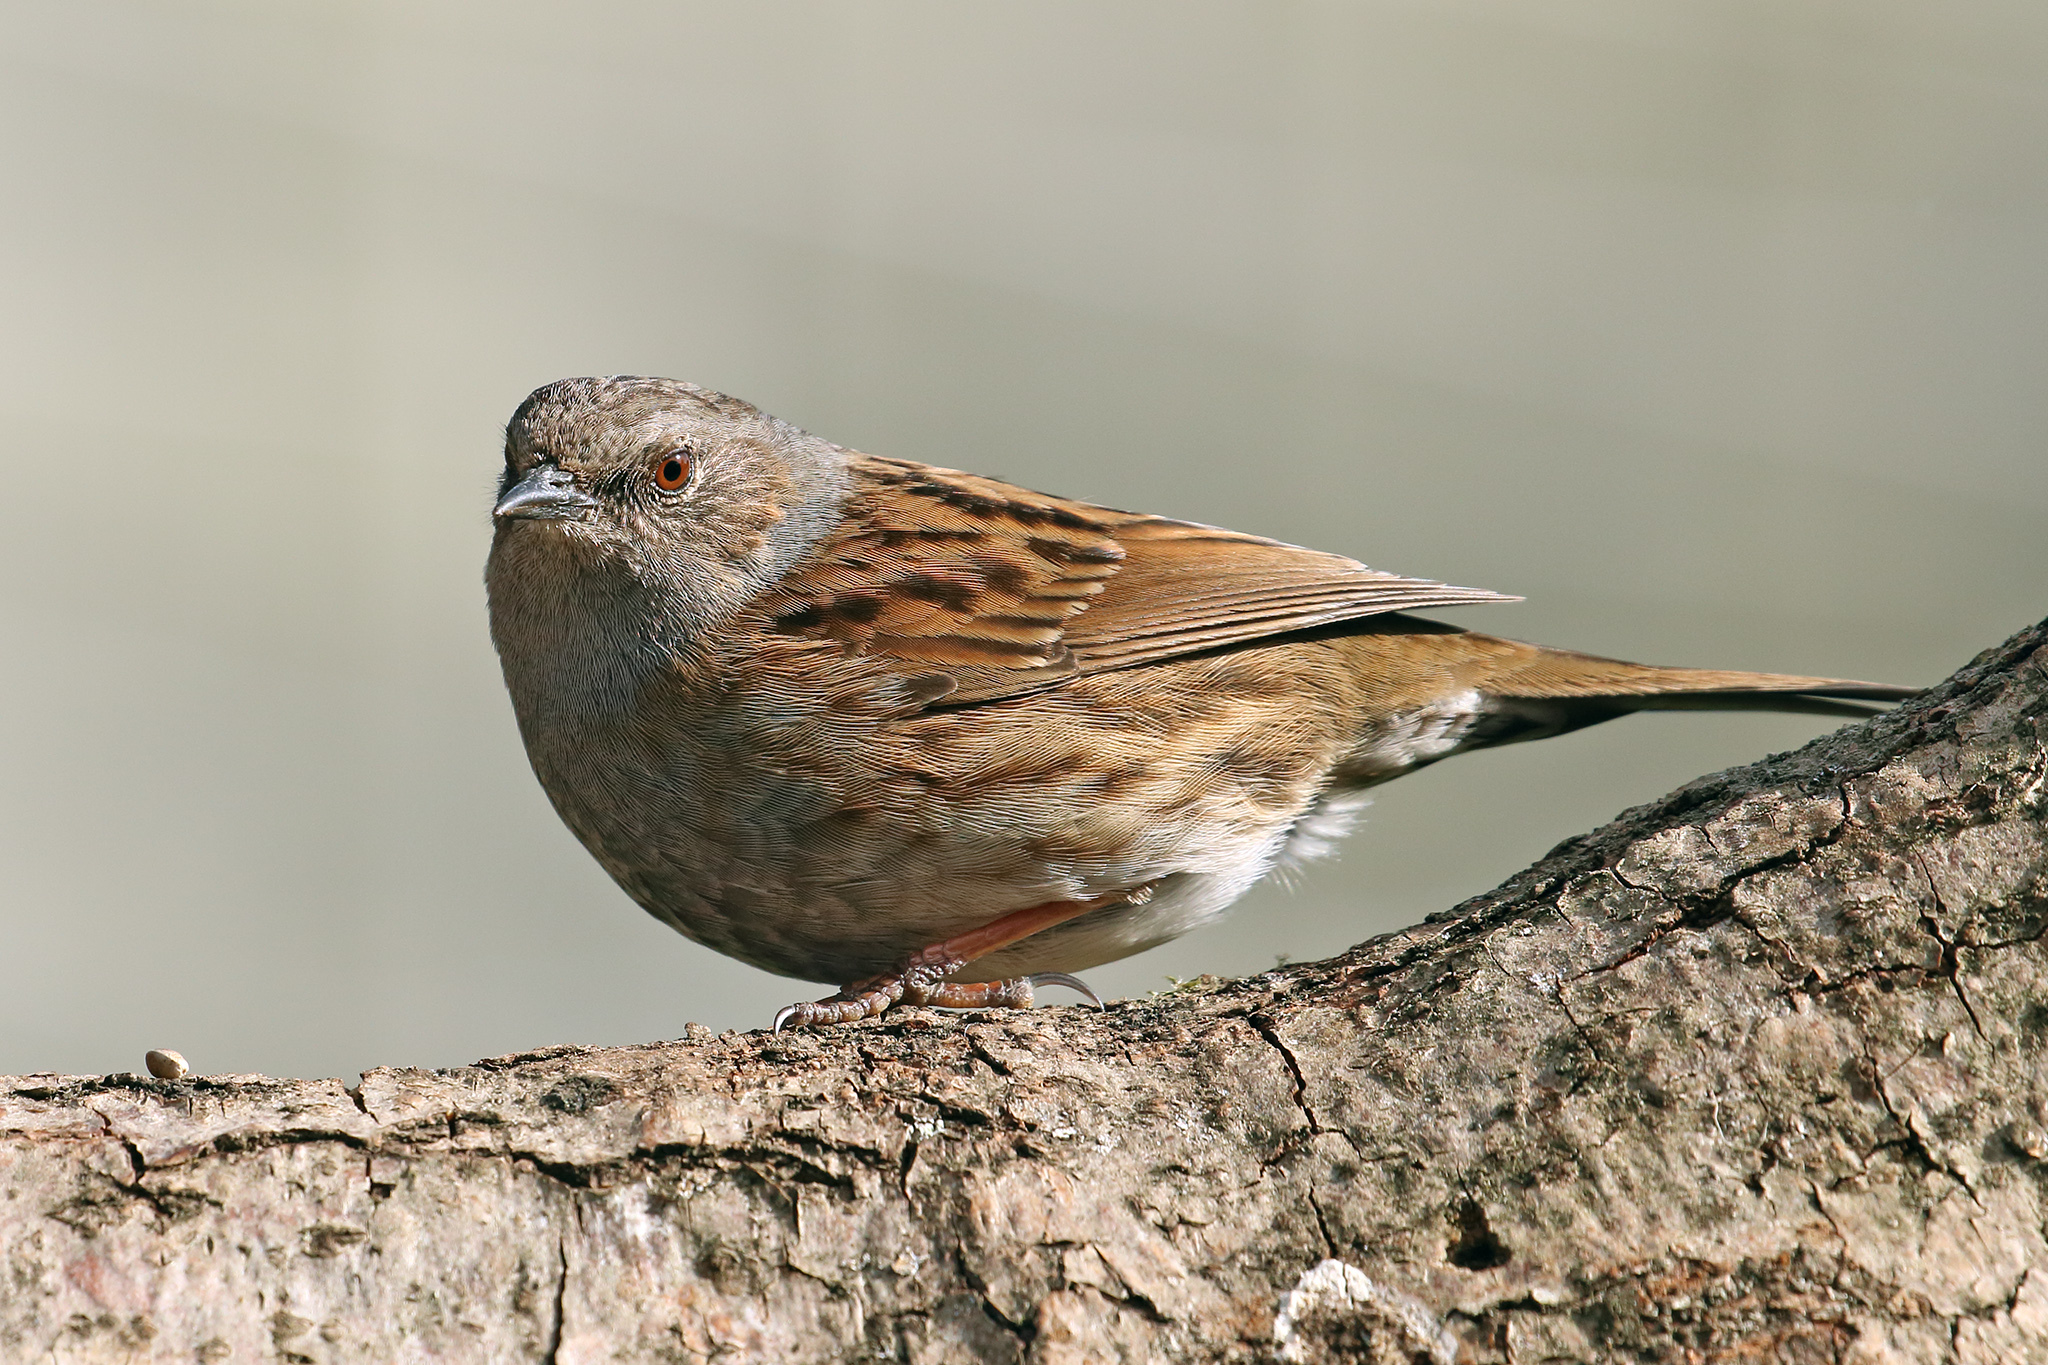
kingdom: Animalia
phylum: Chordata
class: Aves
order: Passeriformes
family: Prunellidae
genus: Prunella
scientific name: Prunella modularis
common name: Dunnock
